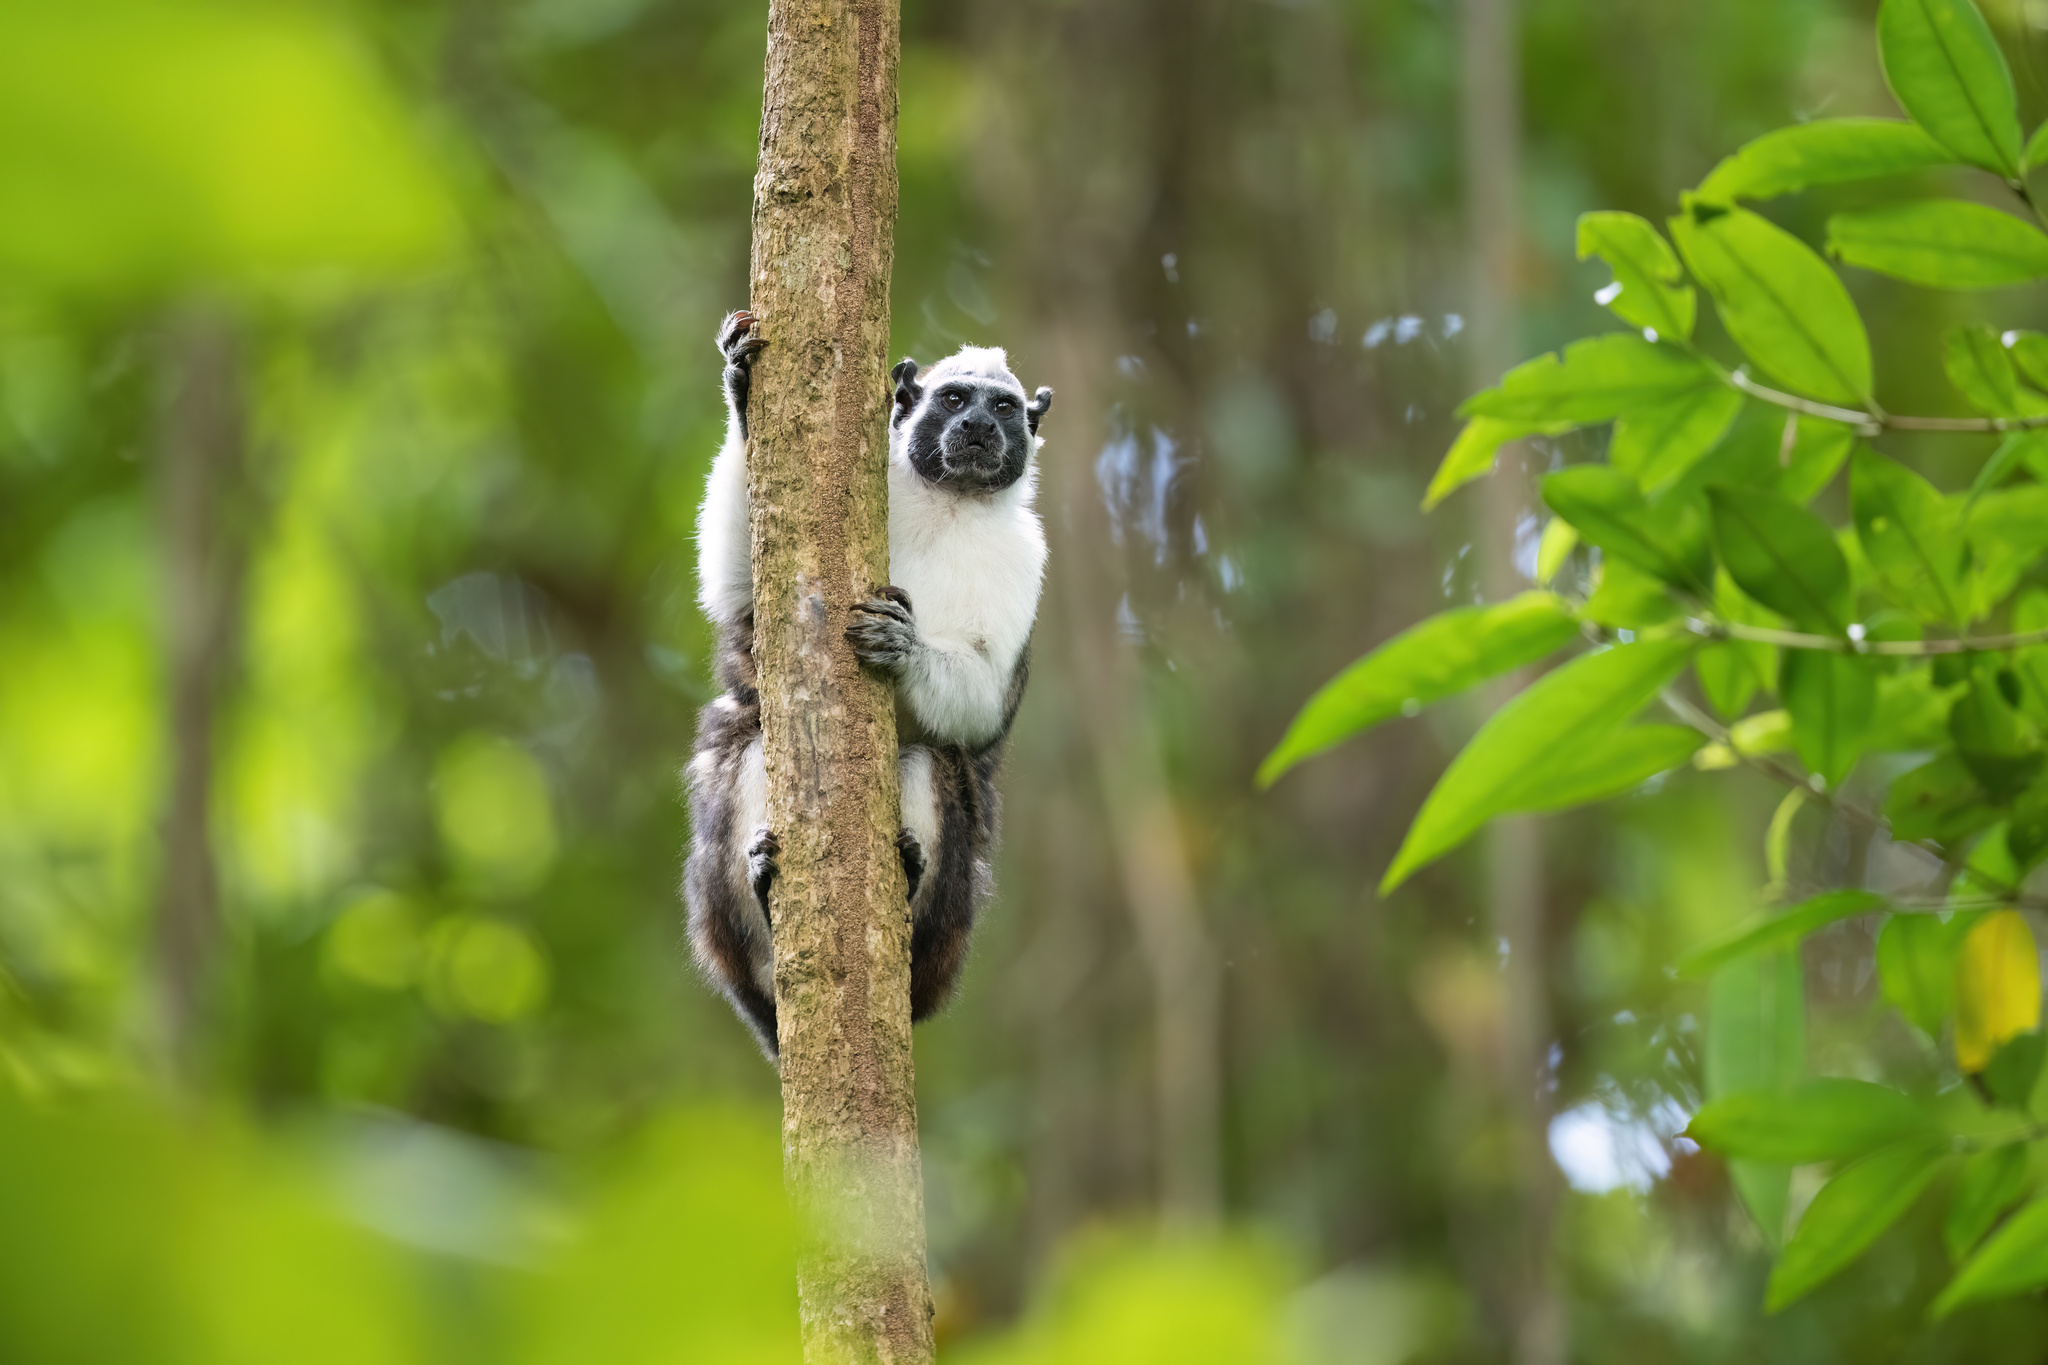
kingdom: Animalia
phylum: Chordata
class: Mammalia
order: Primates
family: Callitrichidae
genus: Saguinus
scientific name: Saguinus geoffroyi
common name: Geoffroy s tamarin
